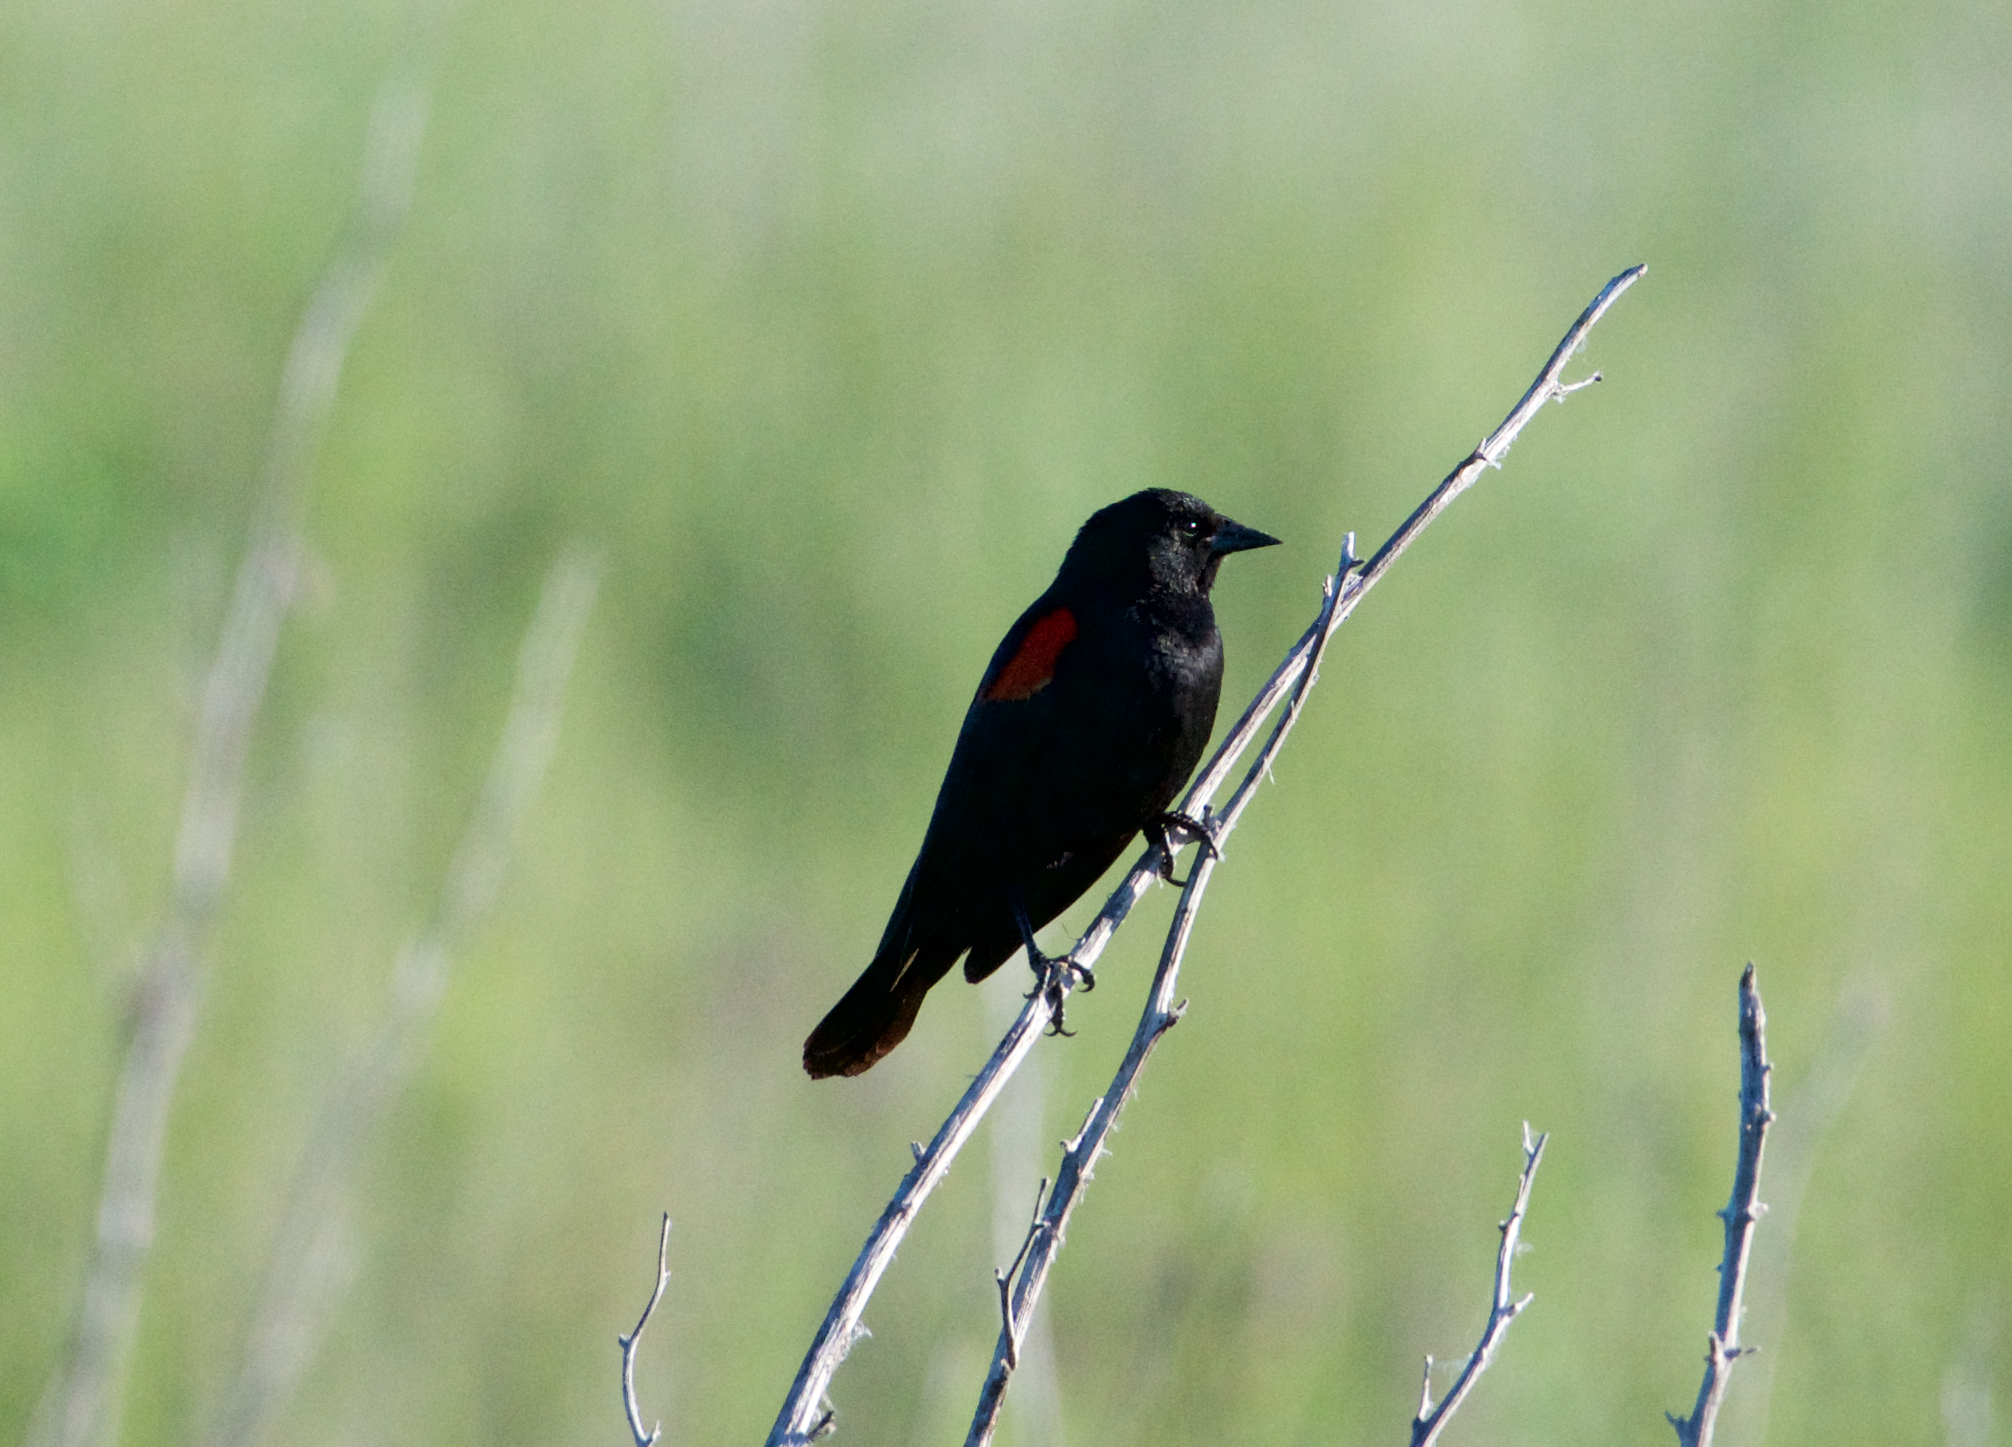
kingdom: Animalia
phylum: Chordata
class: Aves
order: Passeriformes
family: Icteridae
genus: Agelaius
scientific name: Agelaius phoeniceus
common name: Red-winged blackbird
